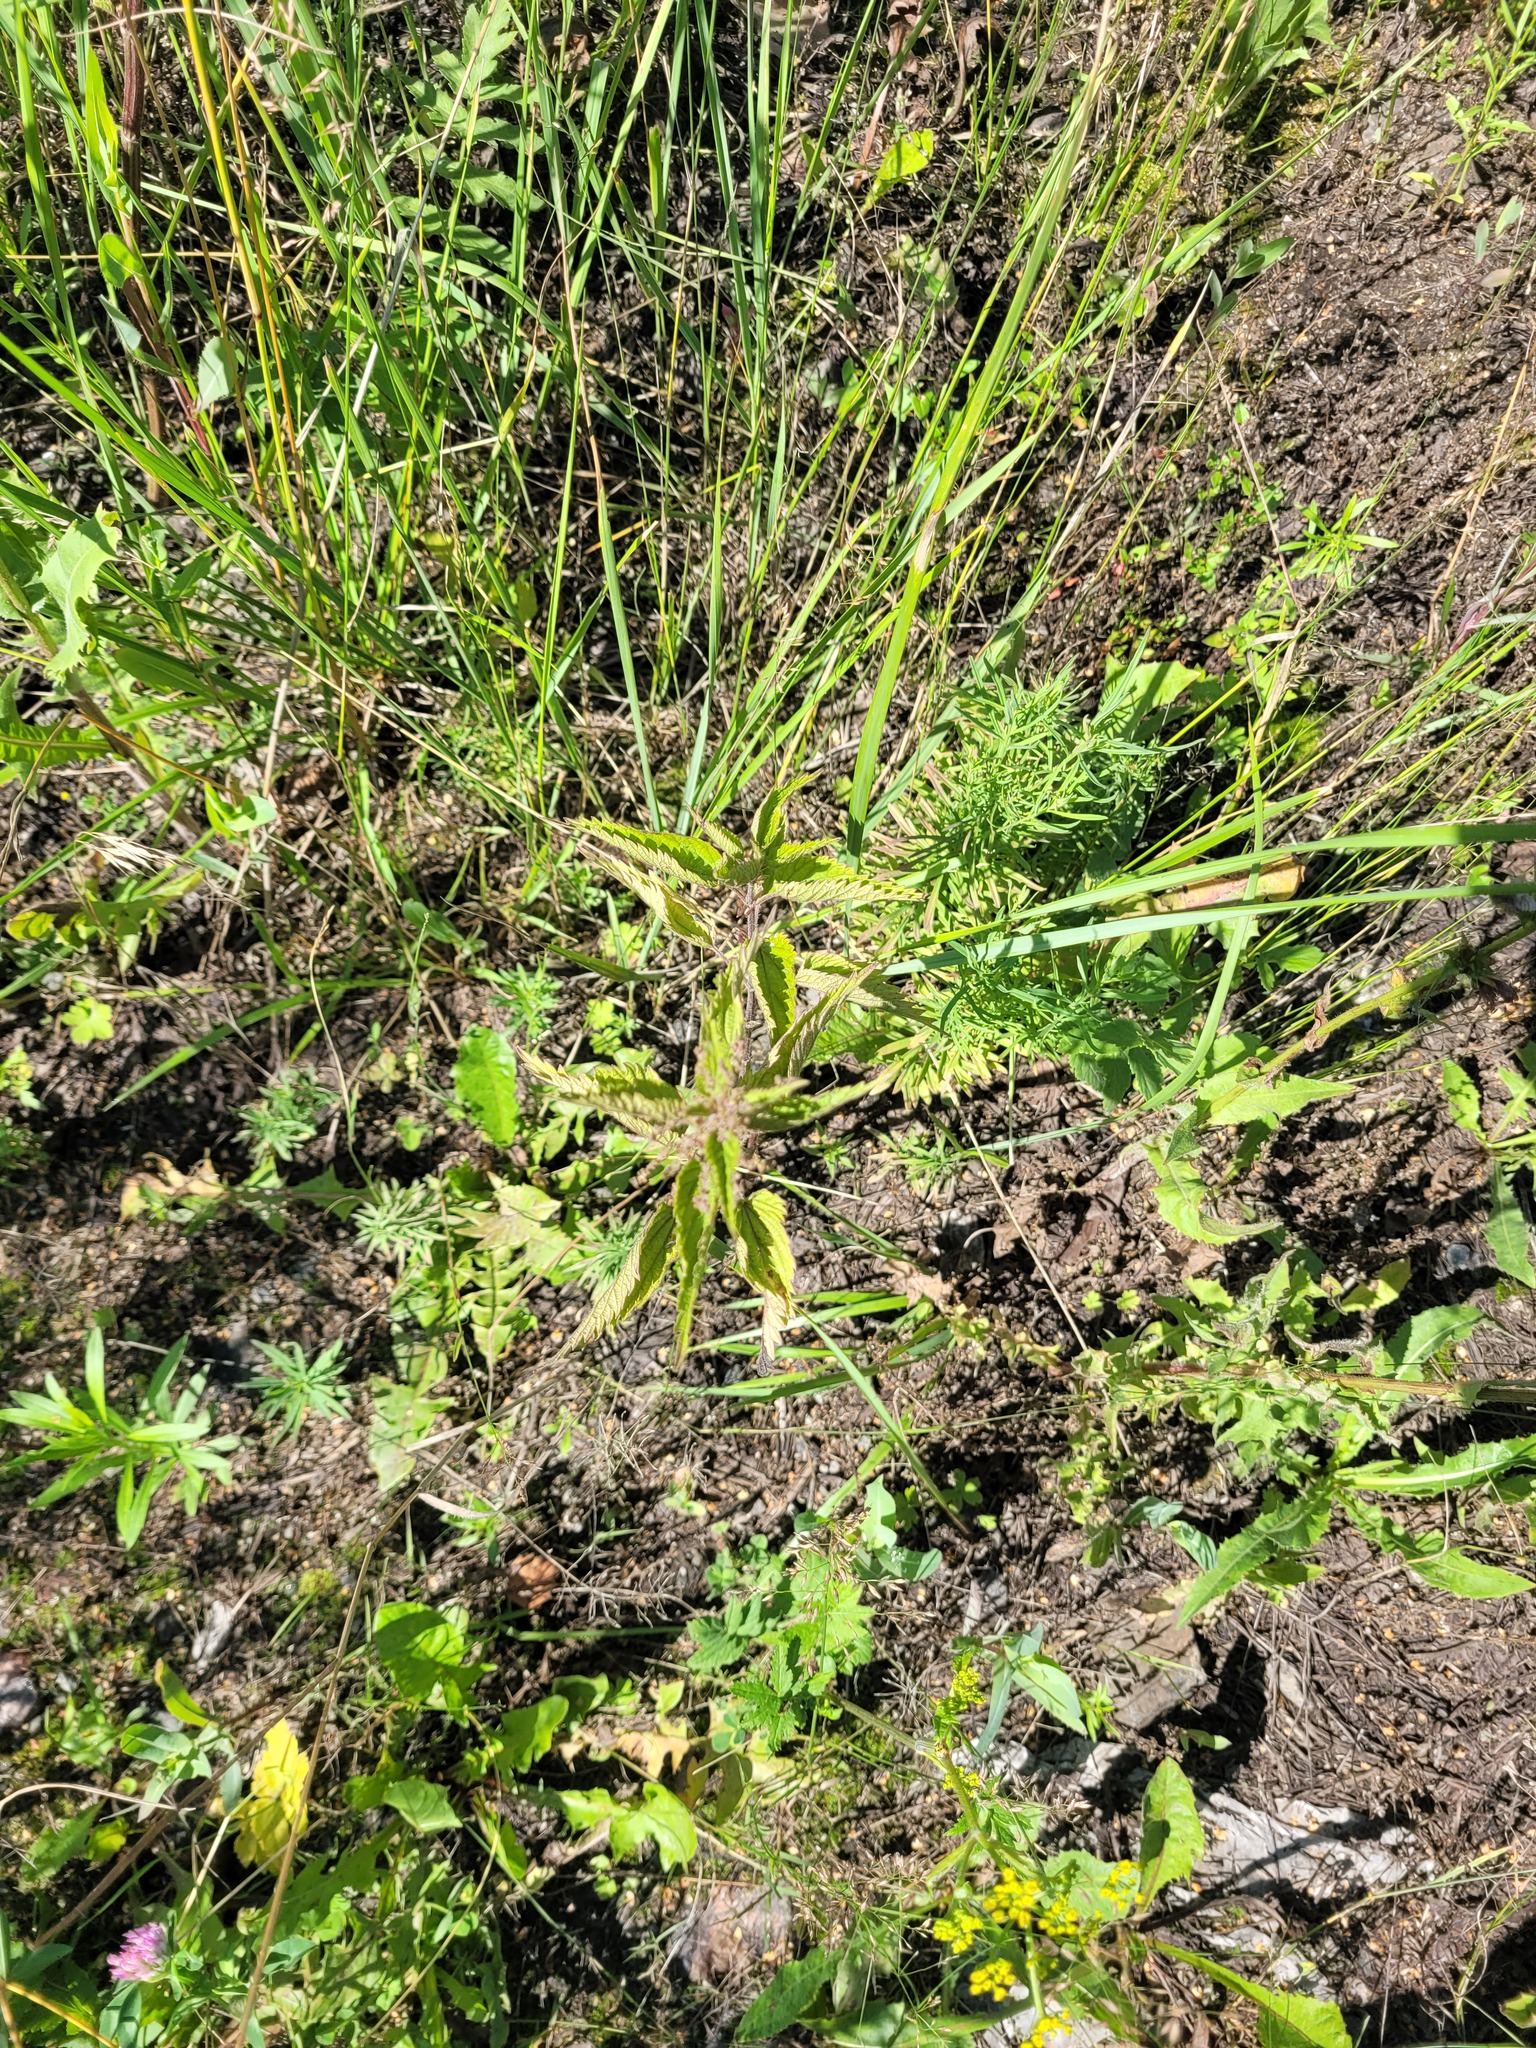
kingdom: Plantae
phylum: Tracheophyta
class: Magnoliopsida
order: Rosales
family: Urticaceae
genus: Urtica
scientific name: Urtica dioica
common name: Common nettle
